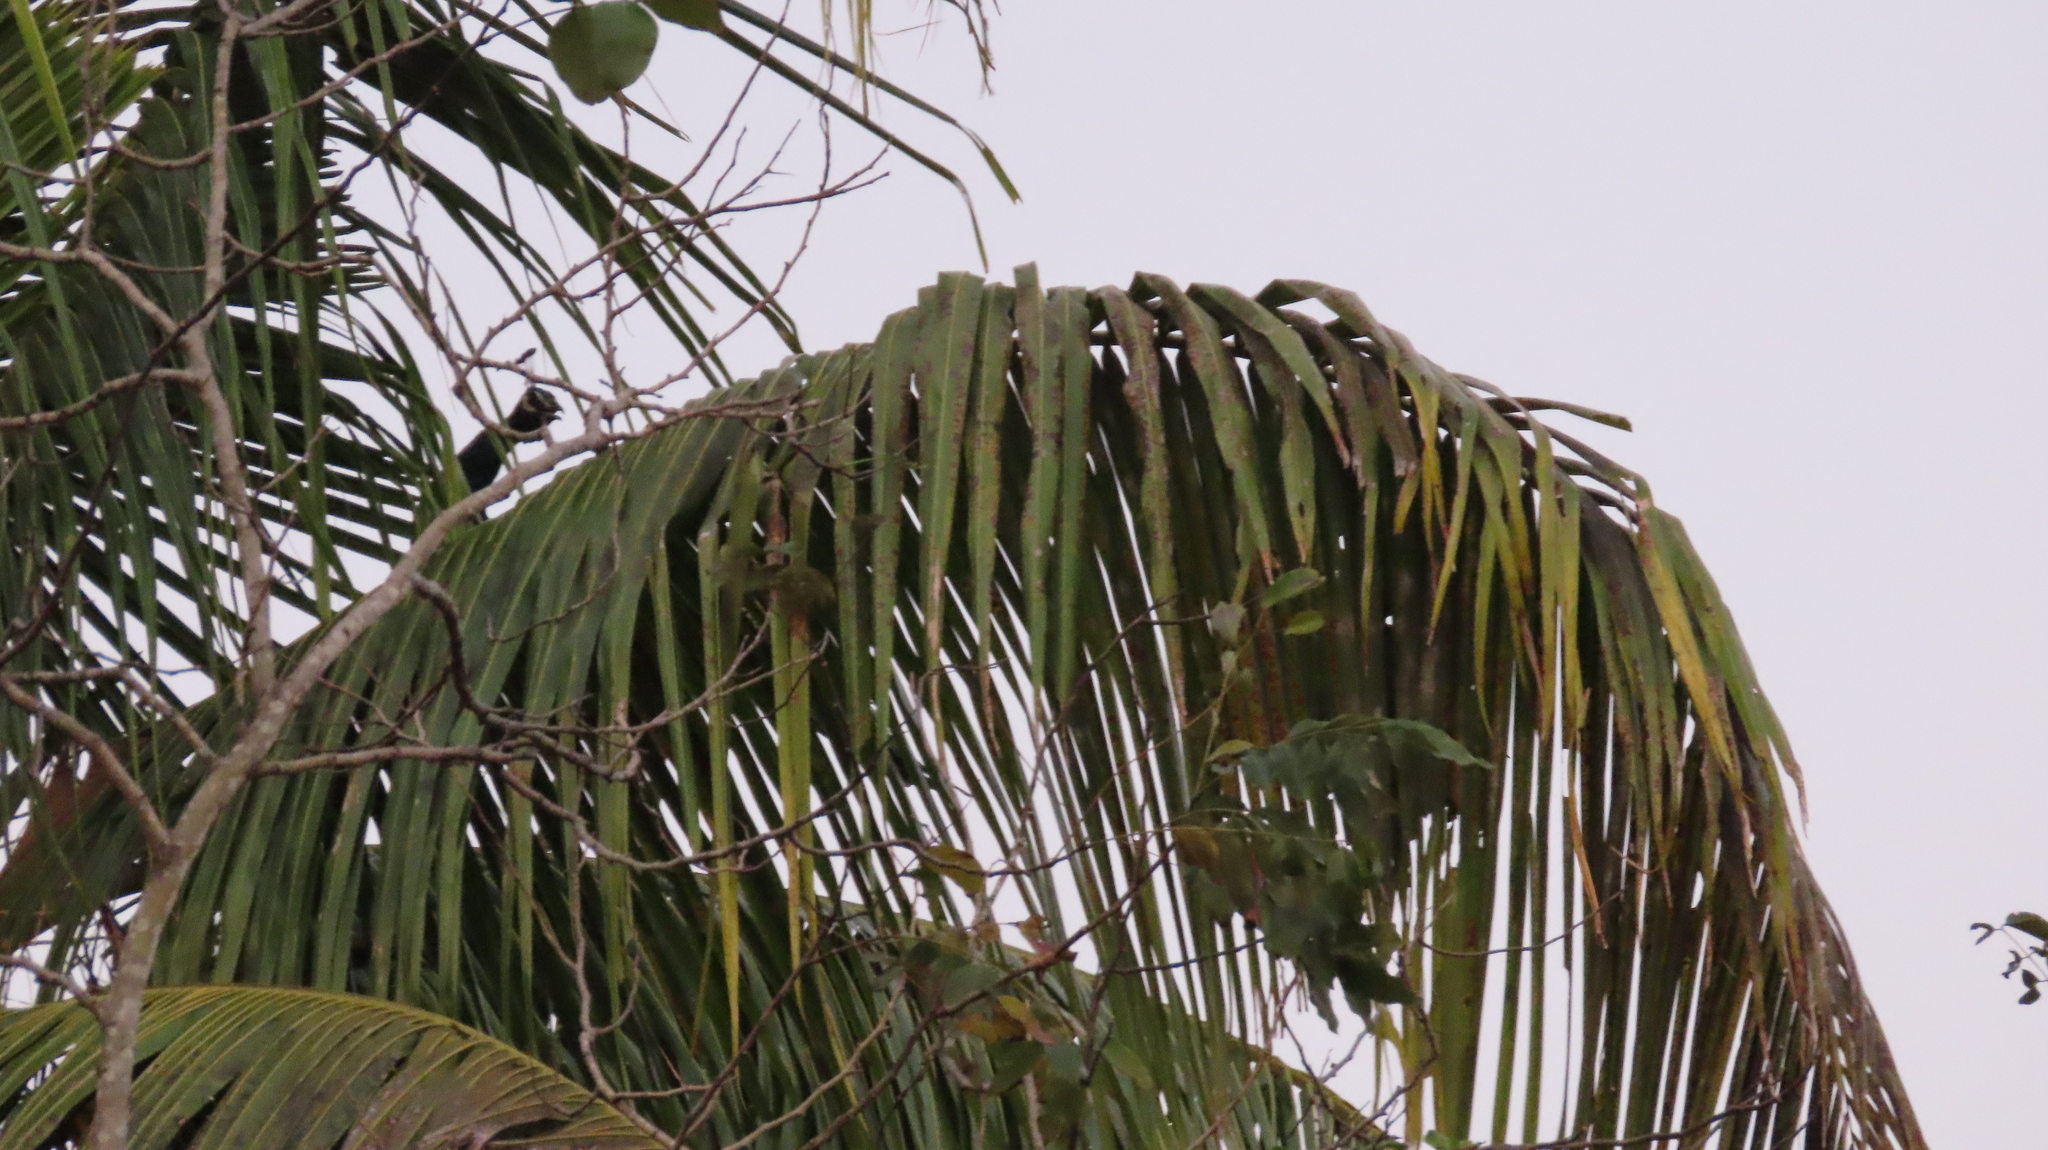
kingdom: Animalia
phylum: Chordata
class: Aves
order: Galliformes
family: Phasianidae
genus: Pavo
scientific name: Pavo cristatus
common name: Indian peafowl
